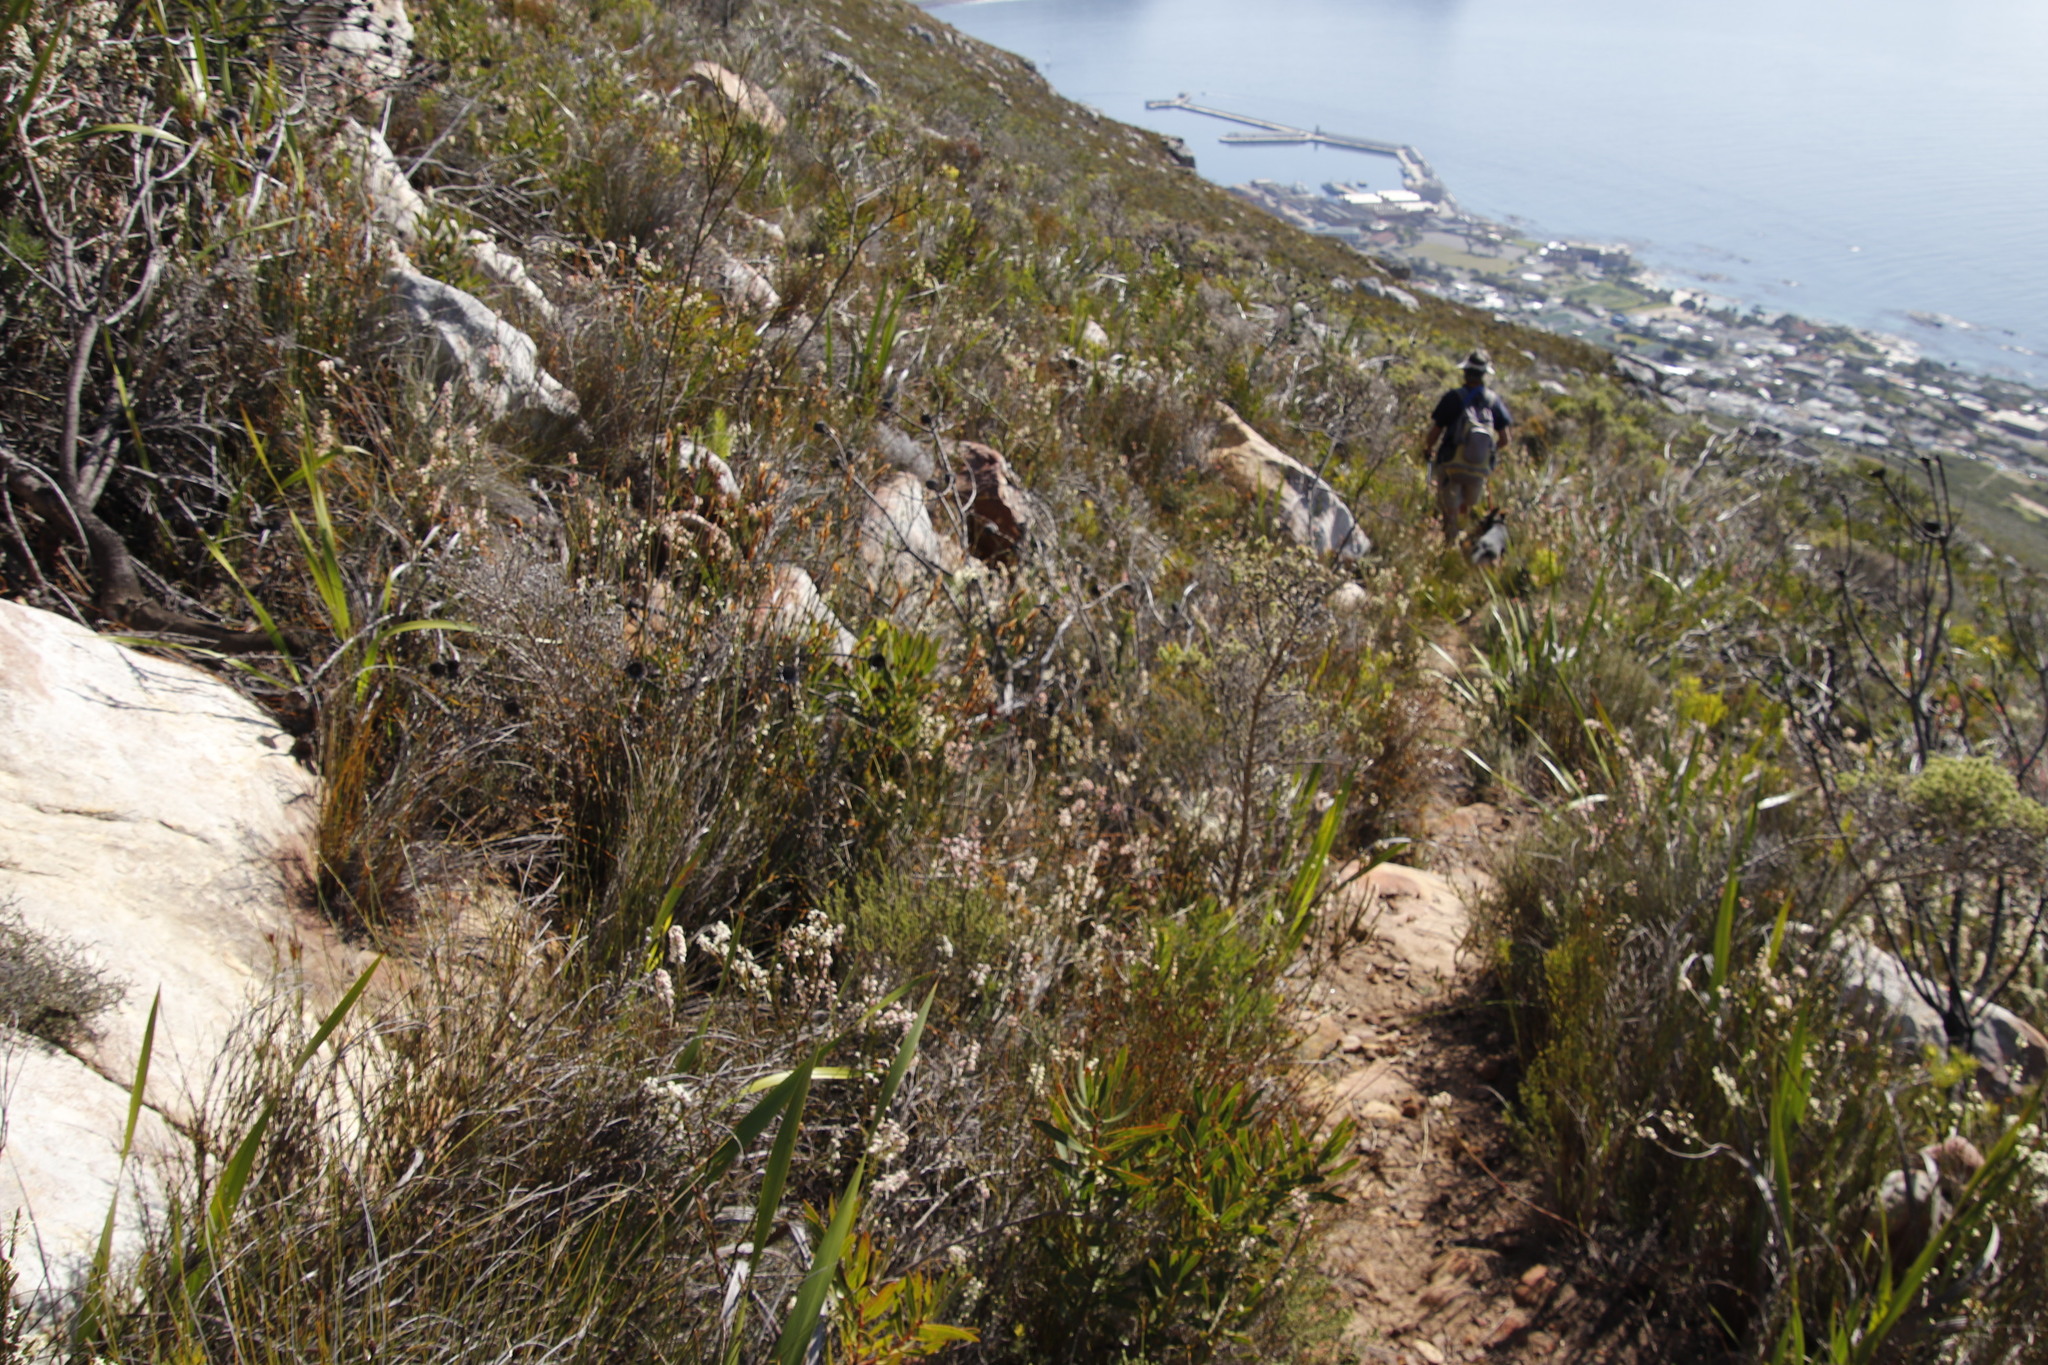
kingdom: Plantae
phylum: Tracheophyta
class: Magnoliopsida
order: Malvales
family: Thymelaeaceae
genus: Struthiola
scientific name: Struthiola ciliata
